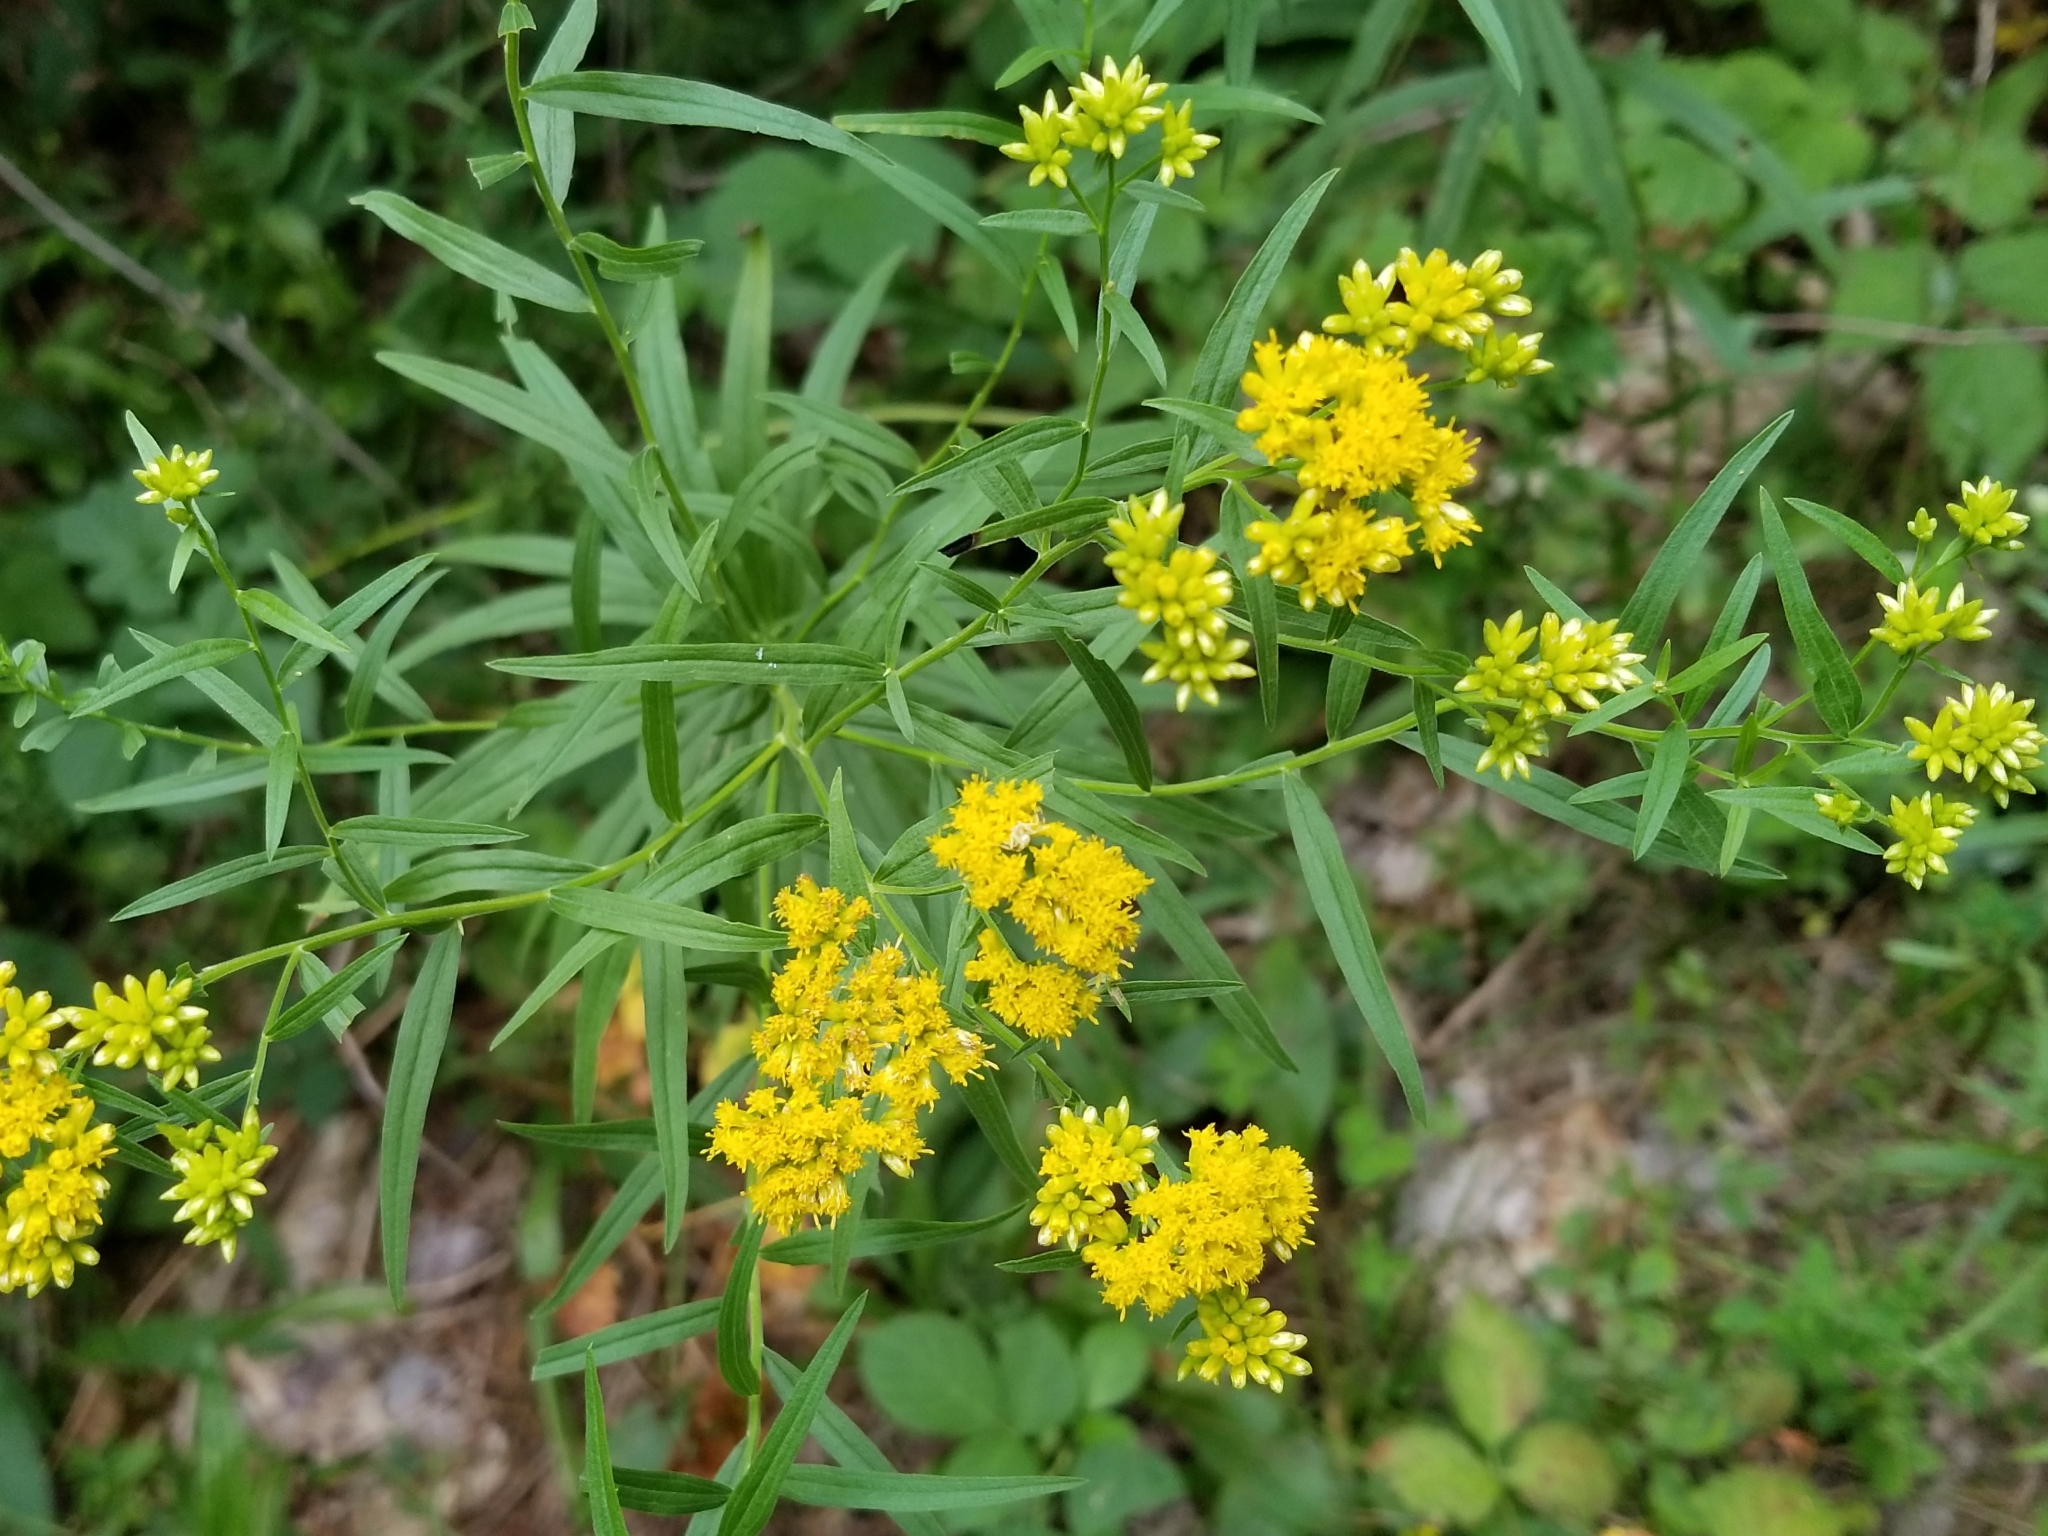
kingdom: Plantae
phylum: Tracheophyta
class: Magnoliopsida
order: Asterales
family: Asteraceae
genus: Euthamia
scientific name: Euthamia graminifolia
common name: Common goldentop
